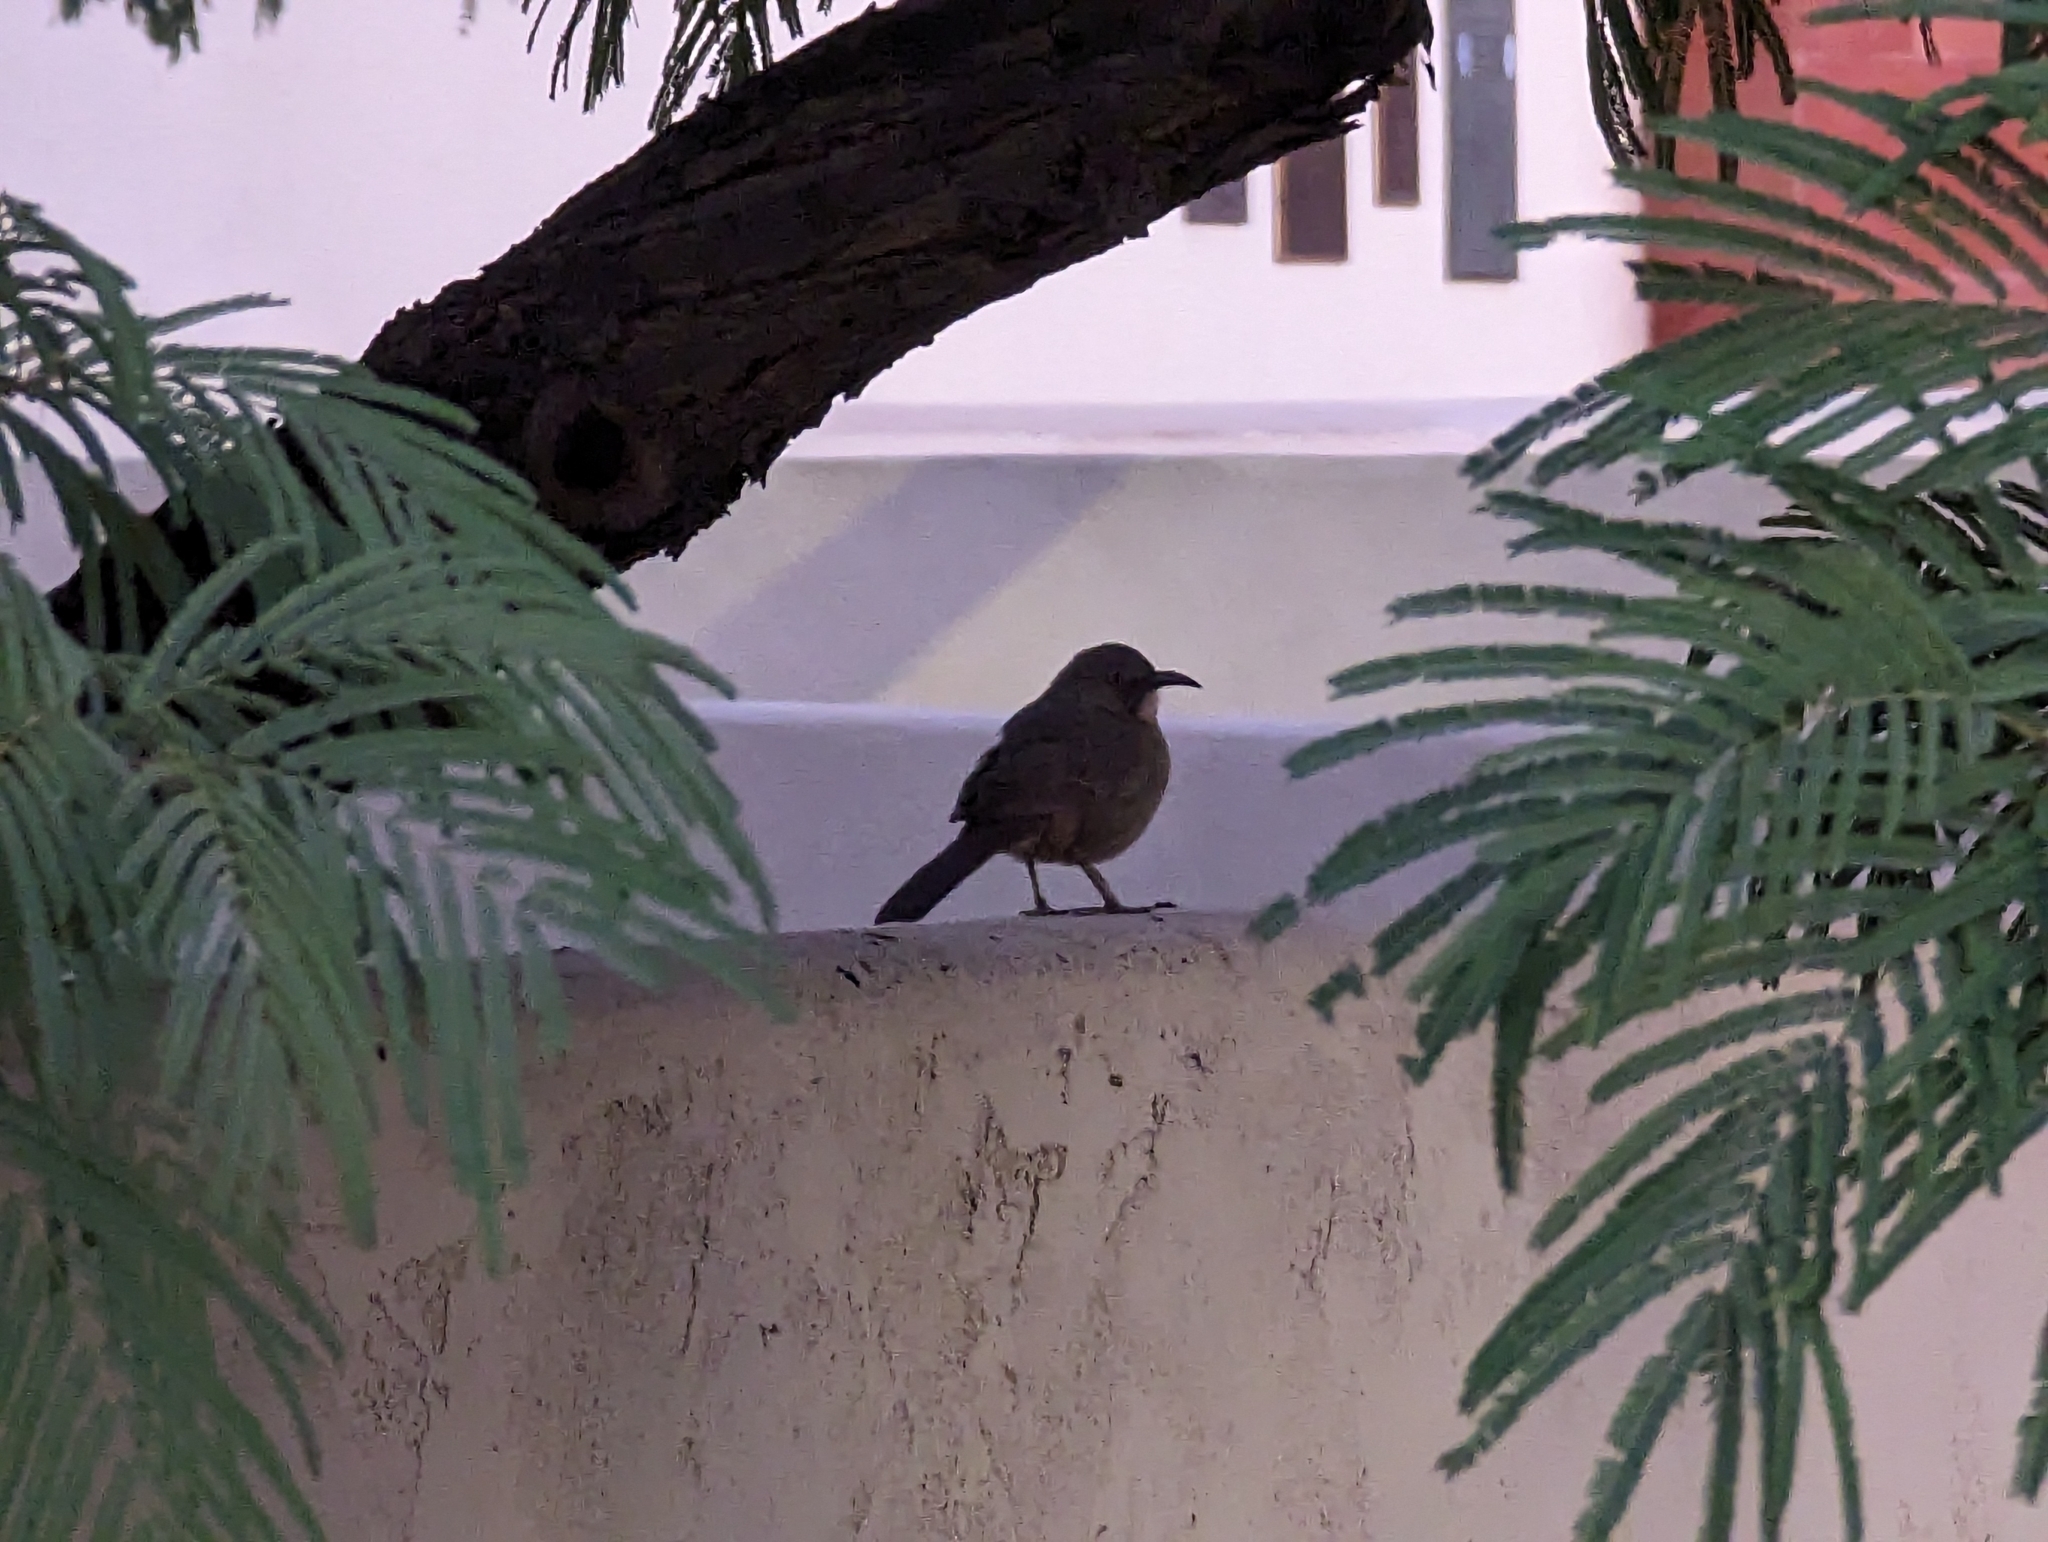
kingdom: Animalia
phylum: Chordata
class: Aves
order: Passeriformes
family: Mimidae
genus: Toxostoma
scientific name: Toxostoma curvirostre
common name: Curve-billed thrasher
